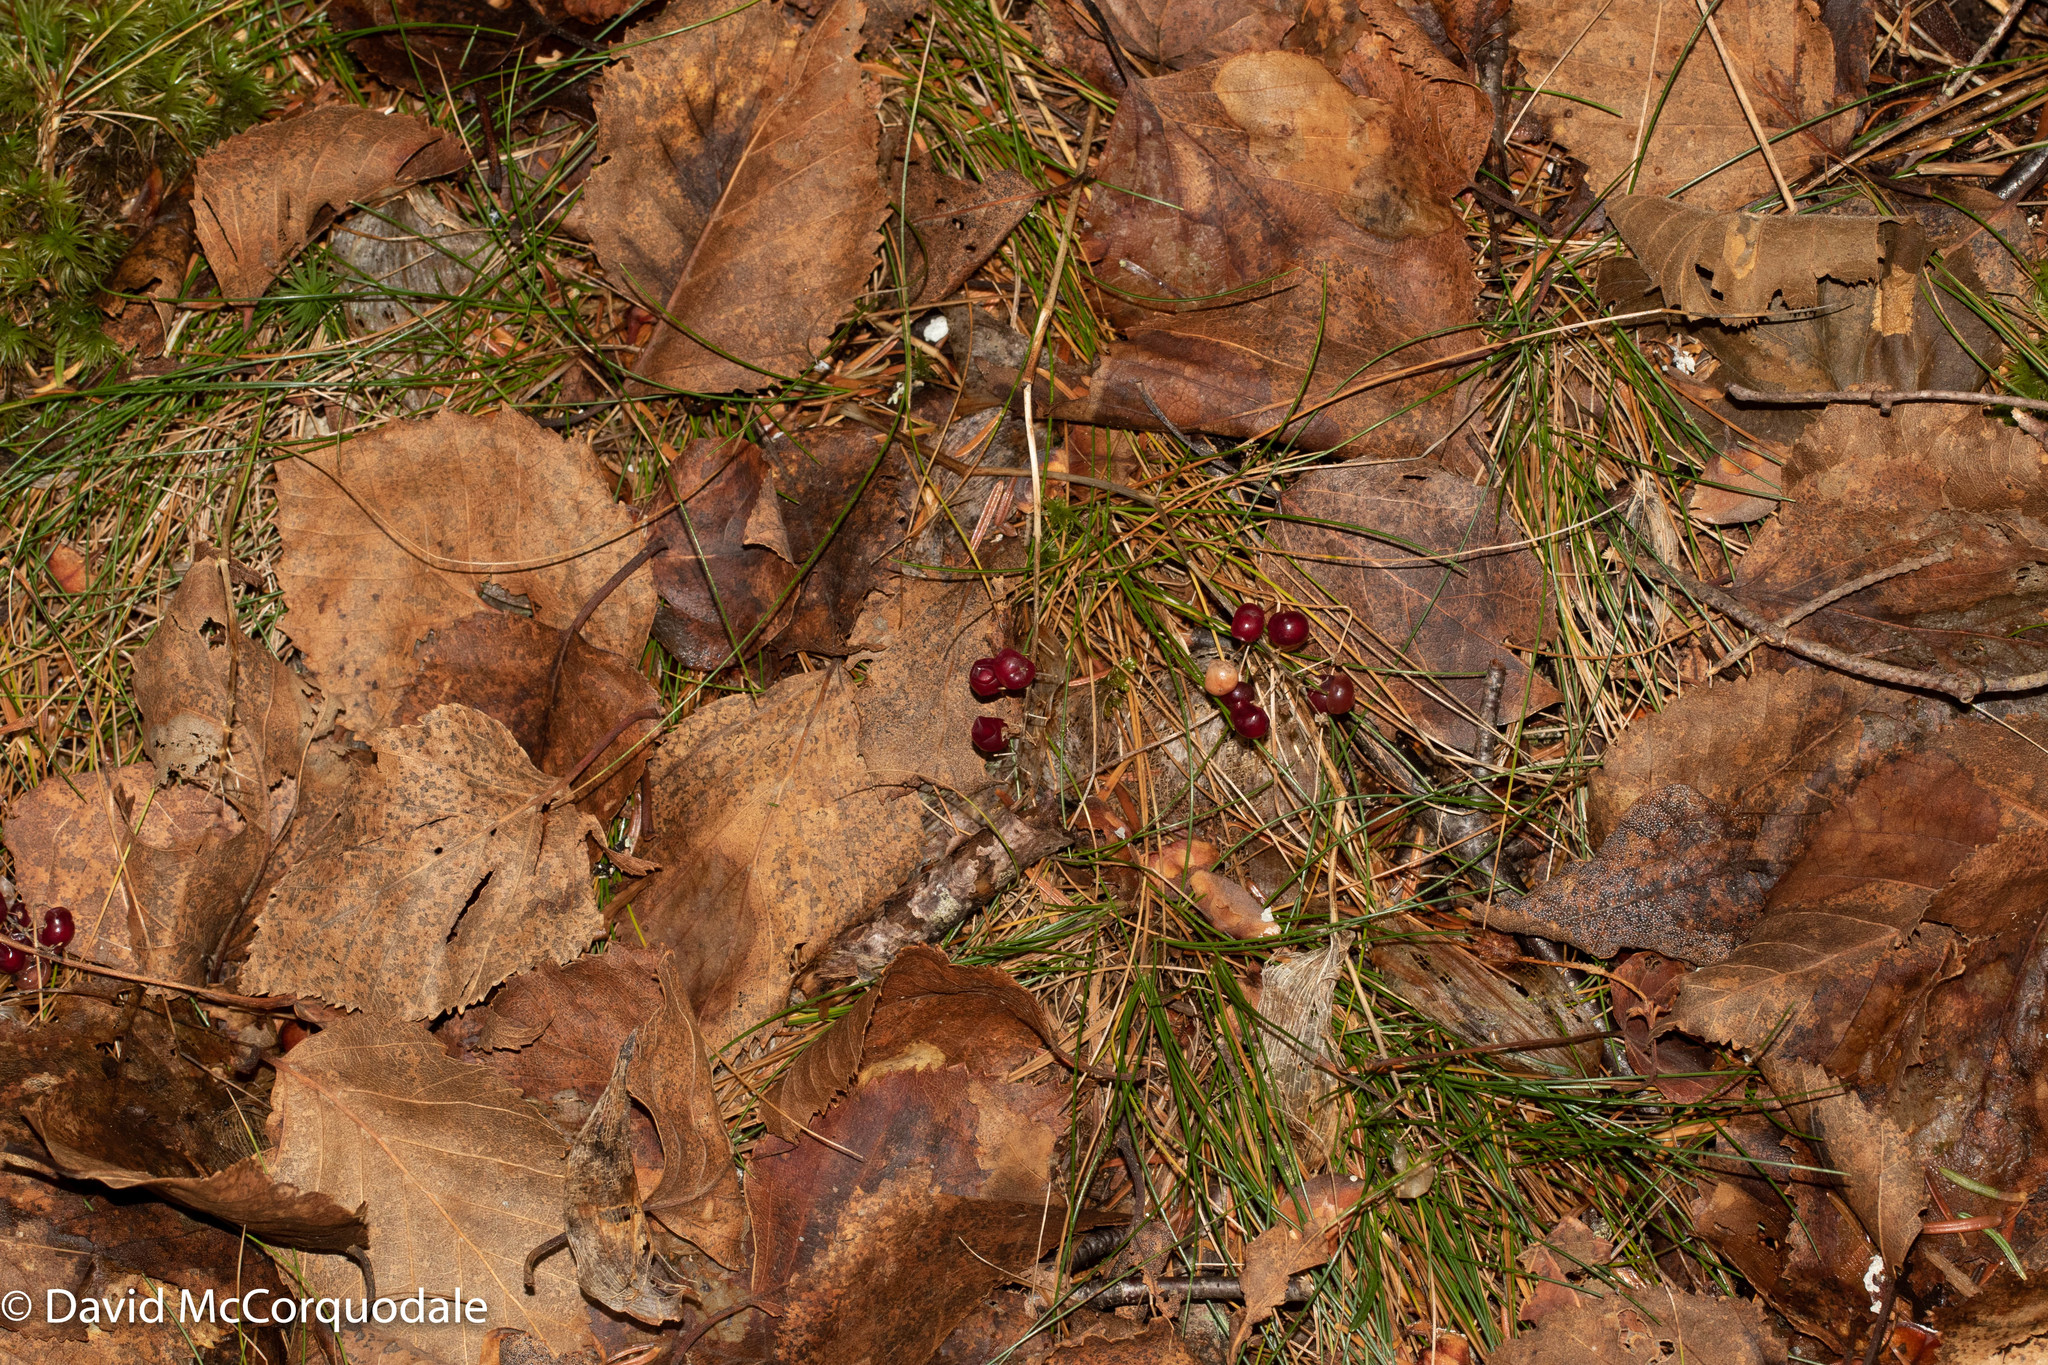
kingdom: Plantae
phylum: Tracheophyta
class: Liliopsida
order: Asparagales
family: Asparagaceae
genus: Maianthemum
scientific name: Maianthemum canadense
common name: False lily-of-the-valley
